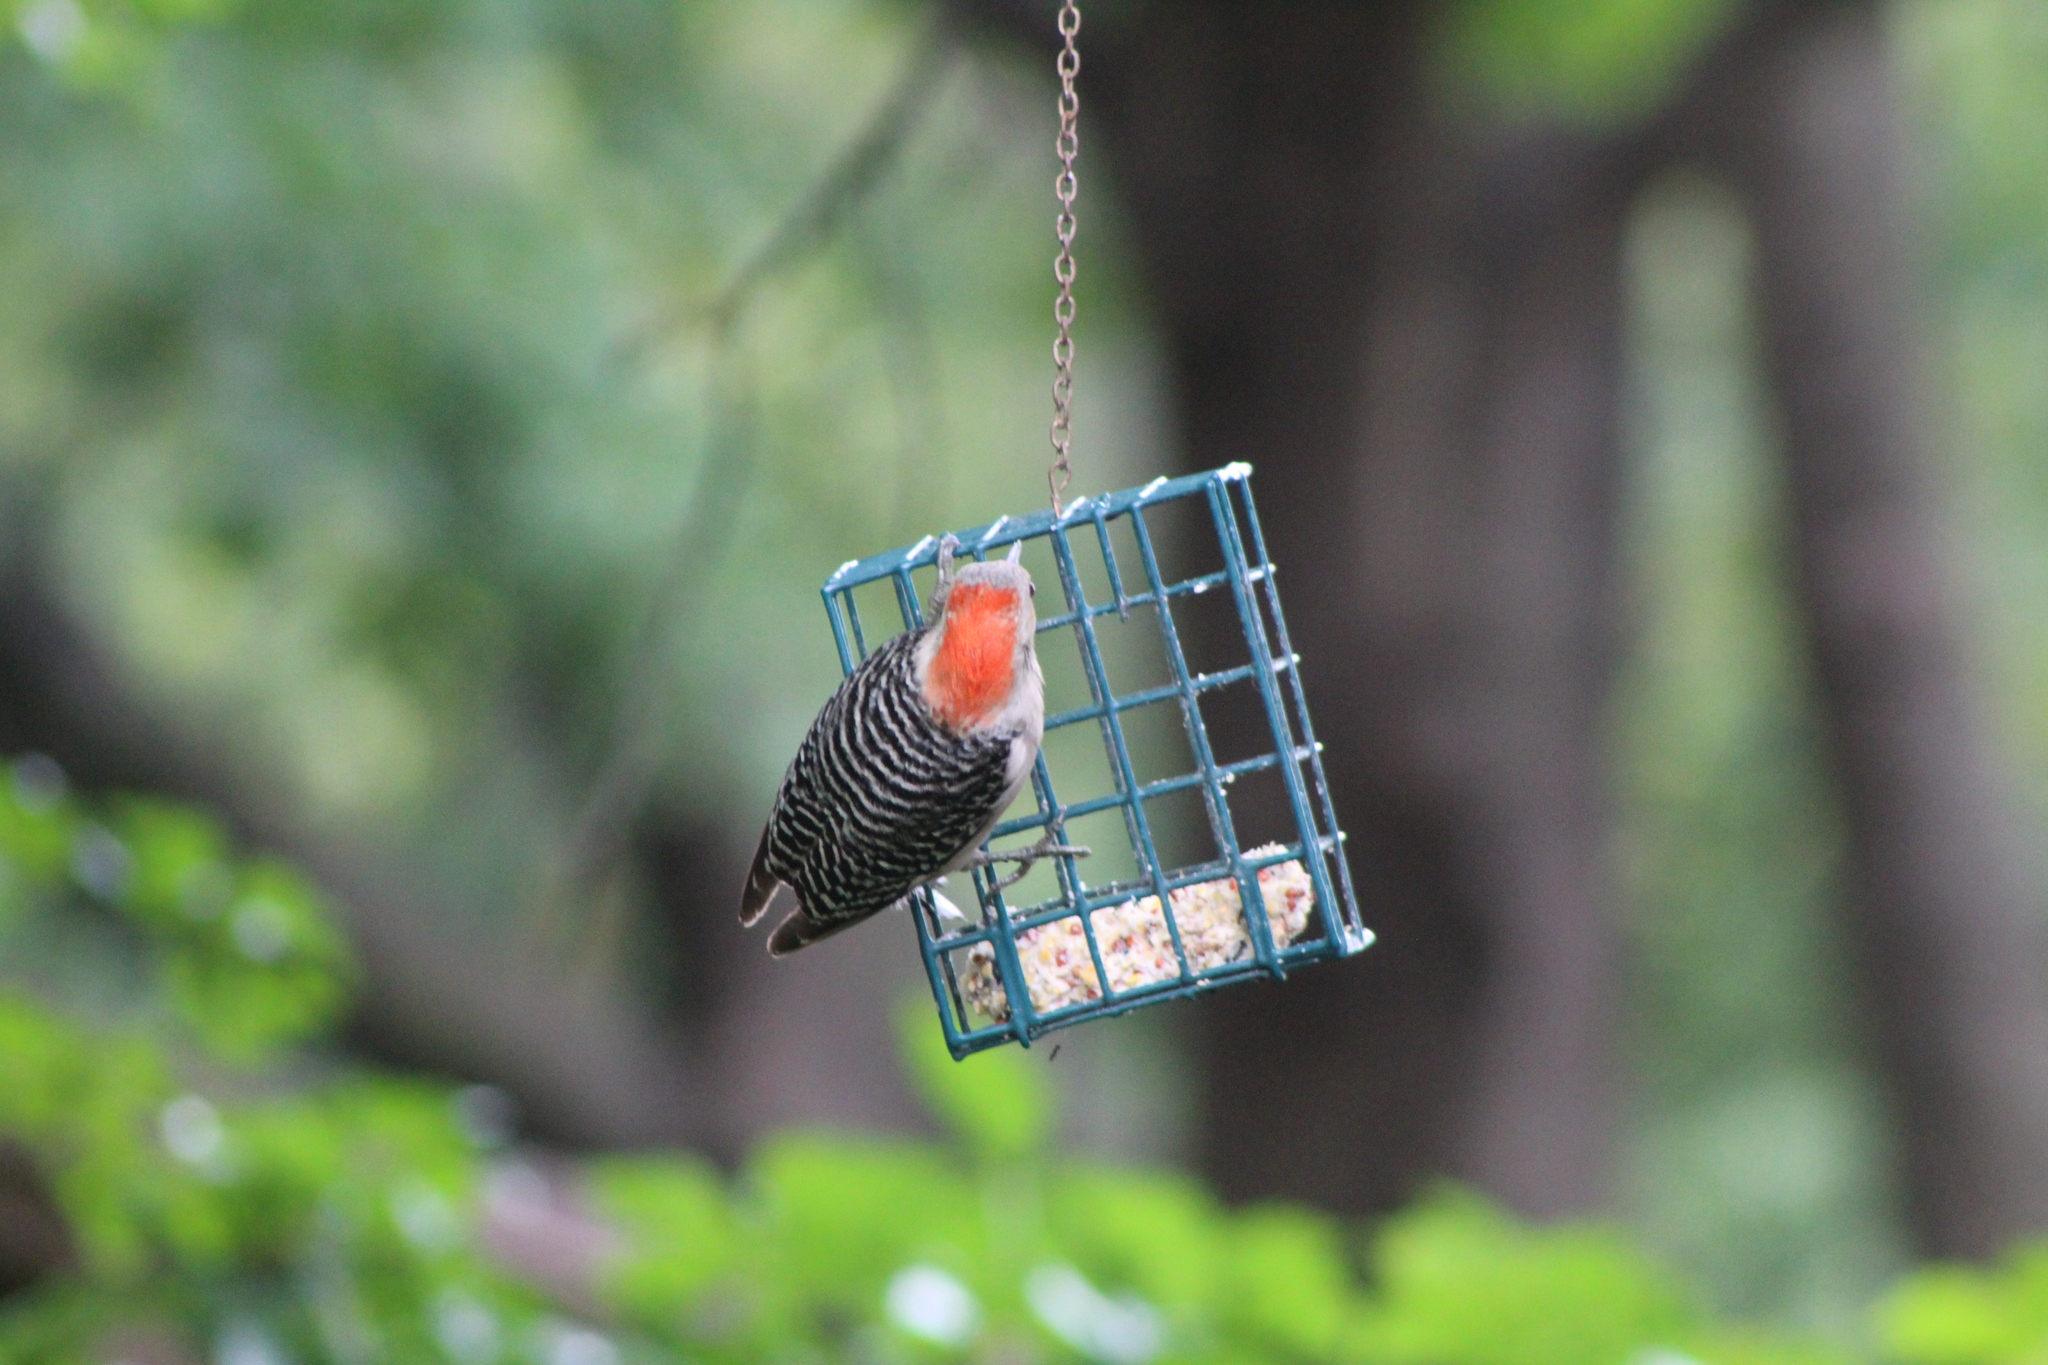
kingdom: Animalia
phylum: Chordata
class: Aves
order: Piciformes
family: Picidae
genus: Melanerpes
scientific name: Melanerpes carolinus
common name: Red-bellied woodpecker
